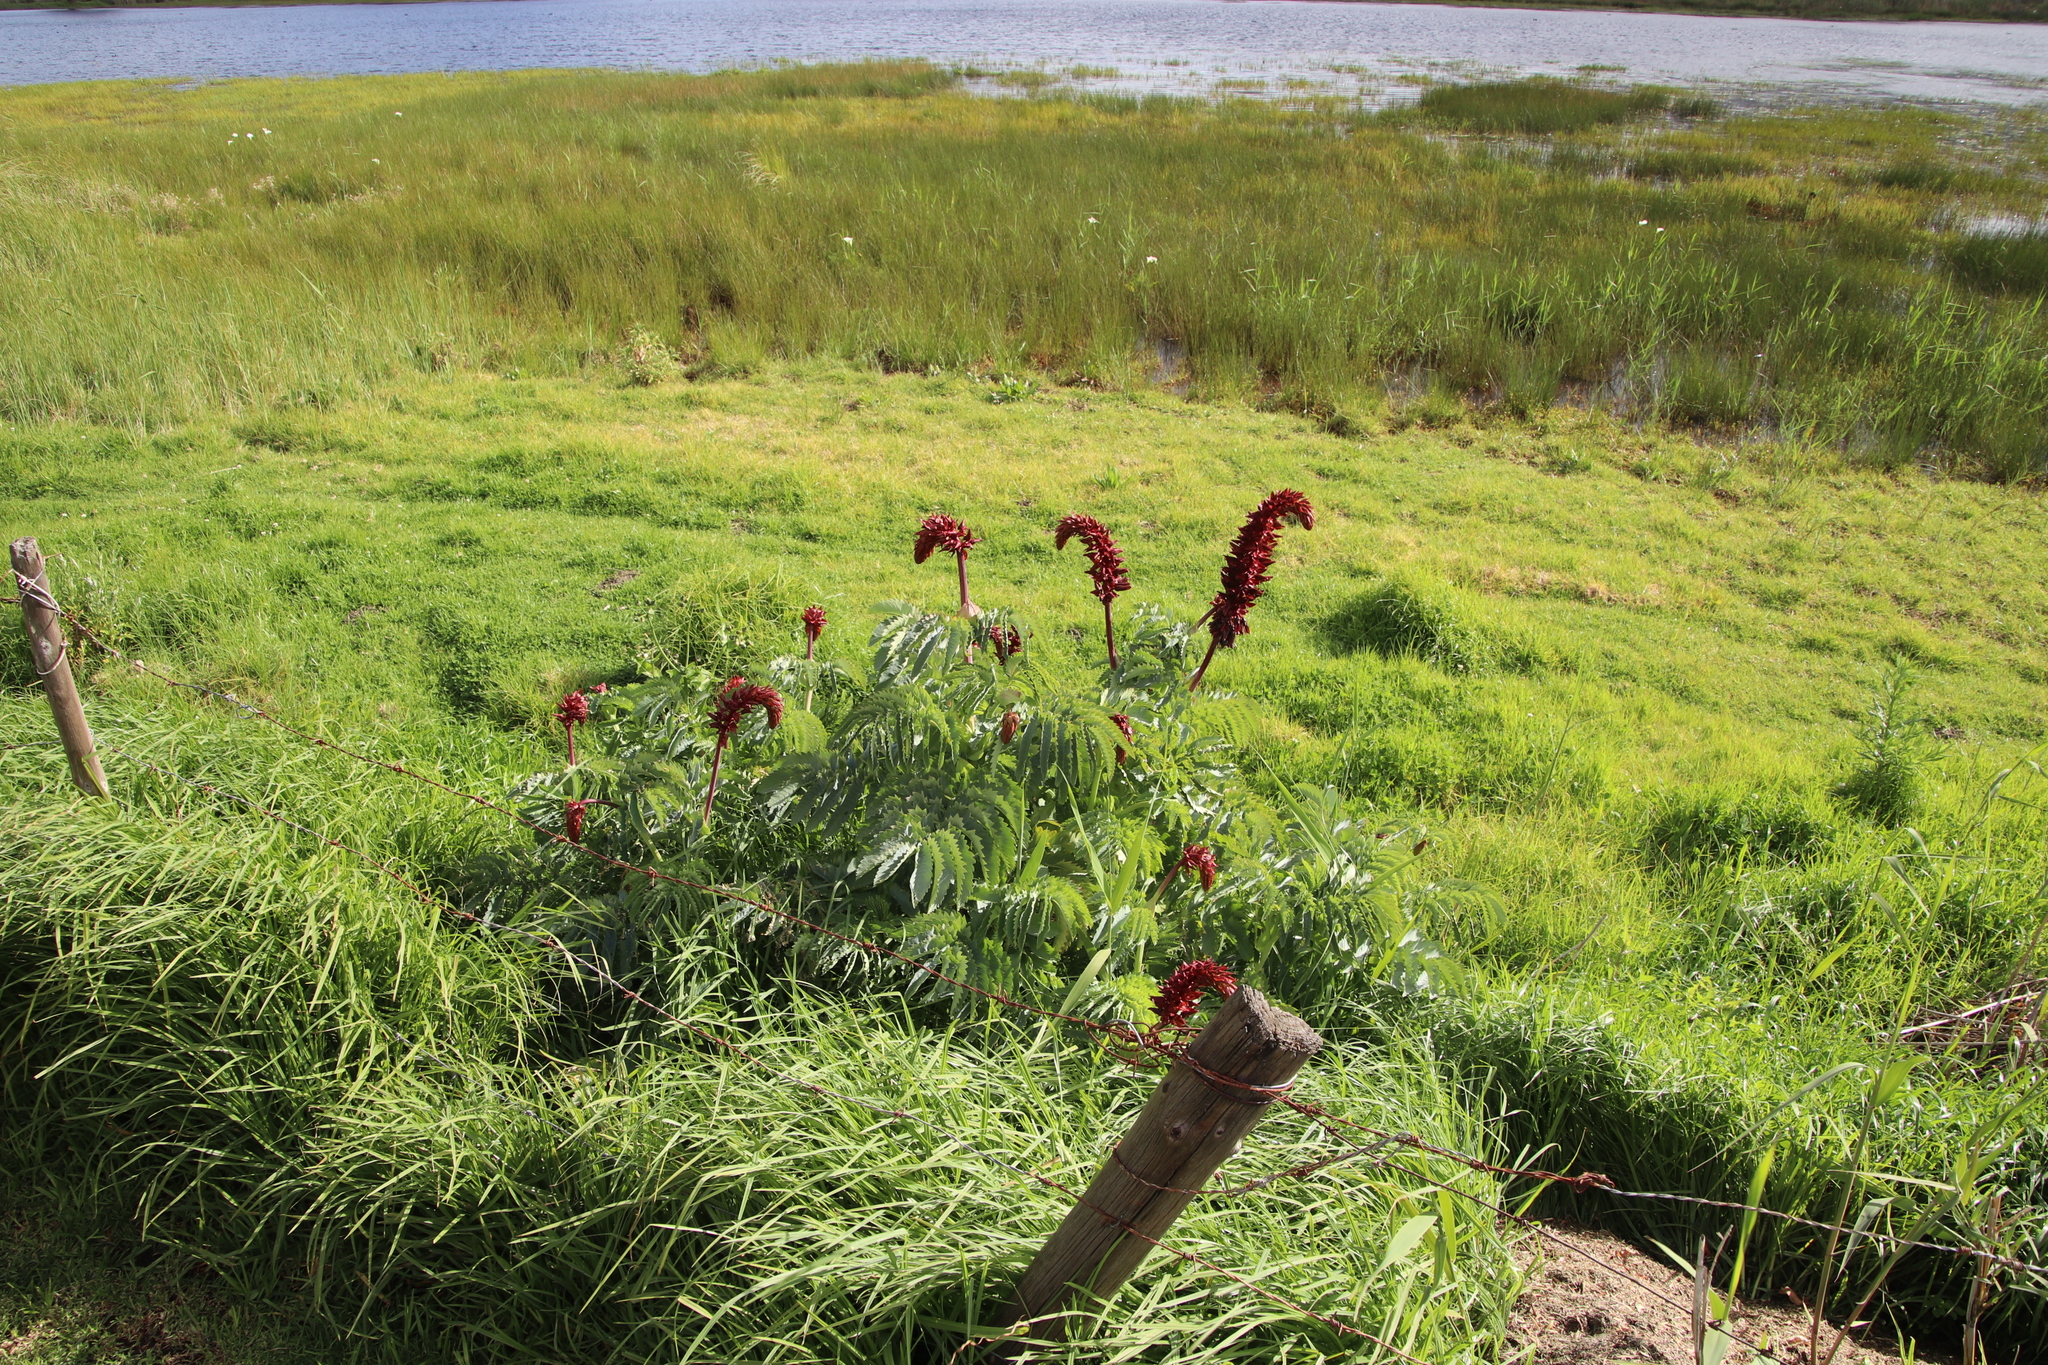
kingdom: Plantae
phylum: Tracheophyta
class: Magnoliopsida
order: Geraniales
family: Melianthaceae
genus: Melianthus
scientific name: Melianthus major
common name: Honey-flower
